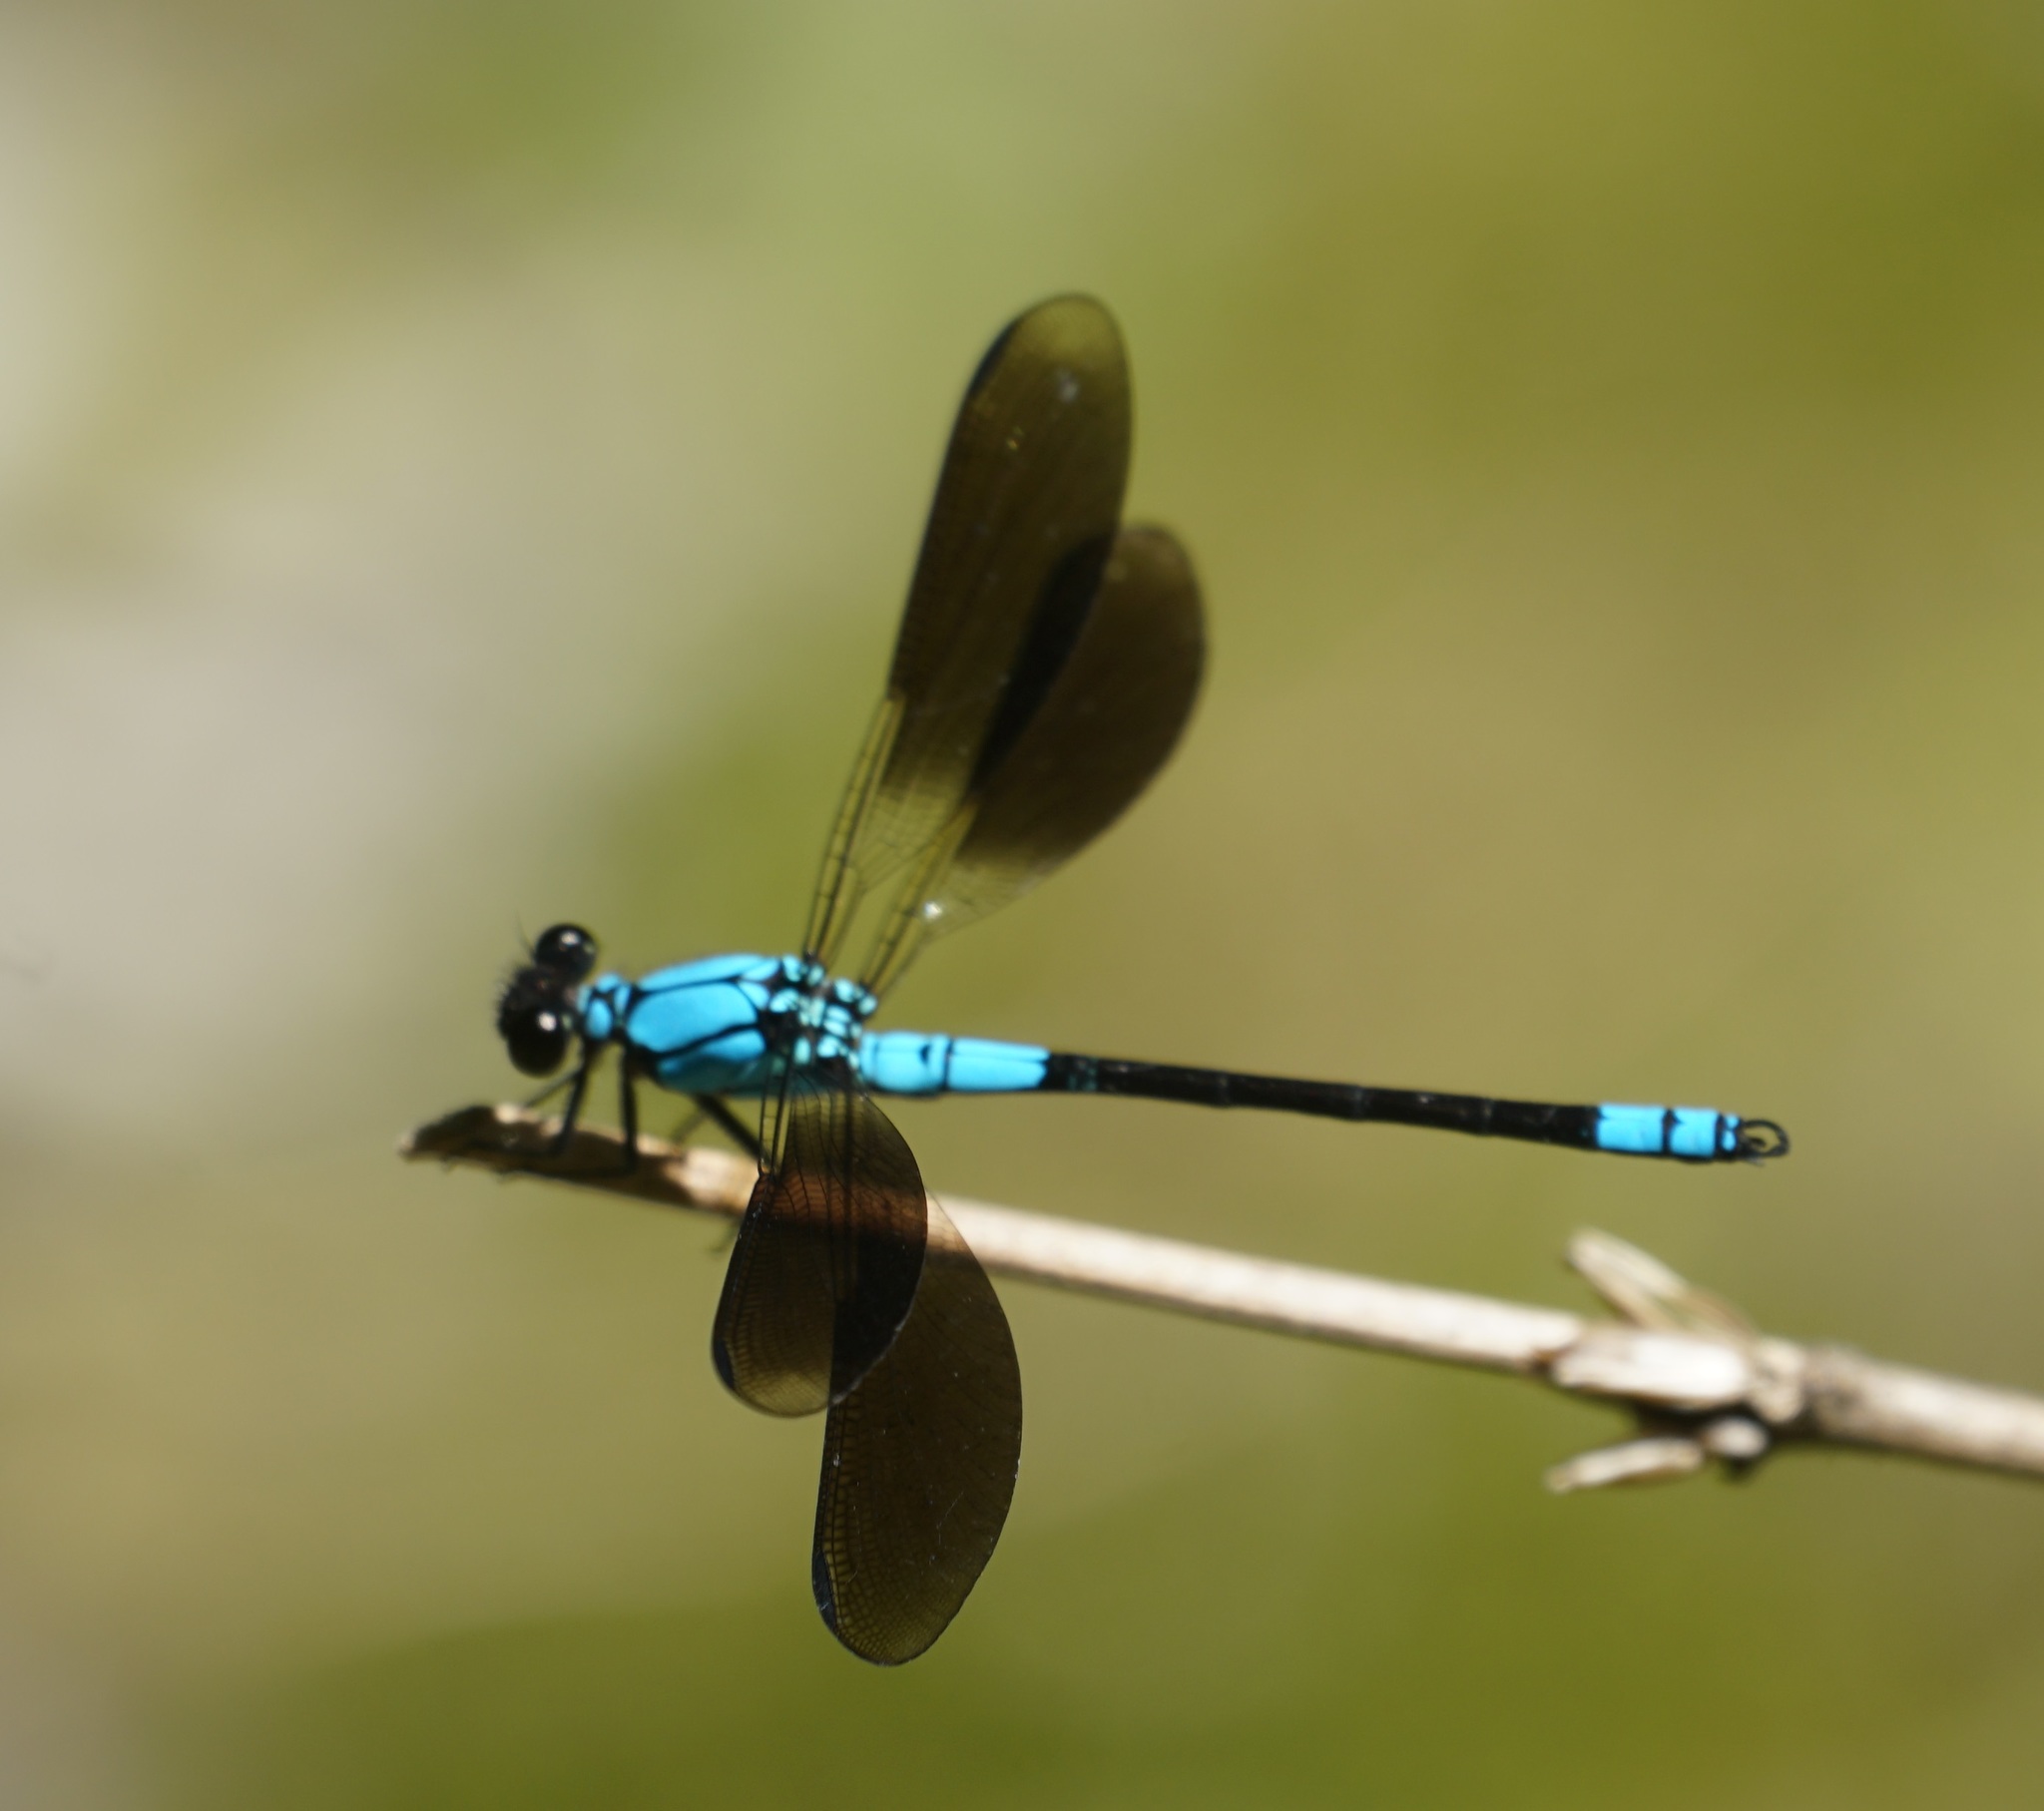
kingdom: Animalia
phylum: Arthropoda
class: Insecta
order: Odonata
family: Lestoideidae
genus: Diphlebia
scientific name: Diphlebia euphoeoides
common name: Tropical rockmaster
